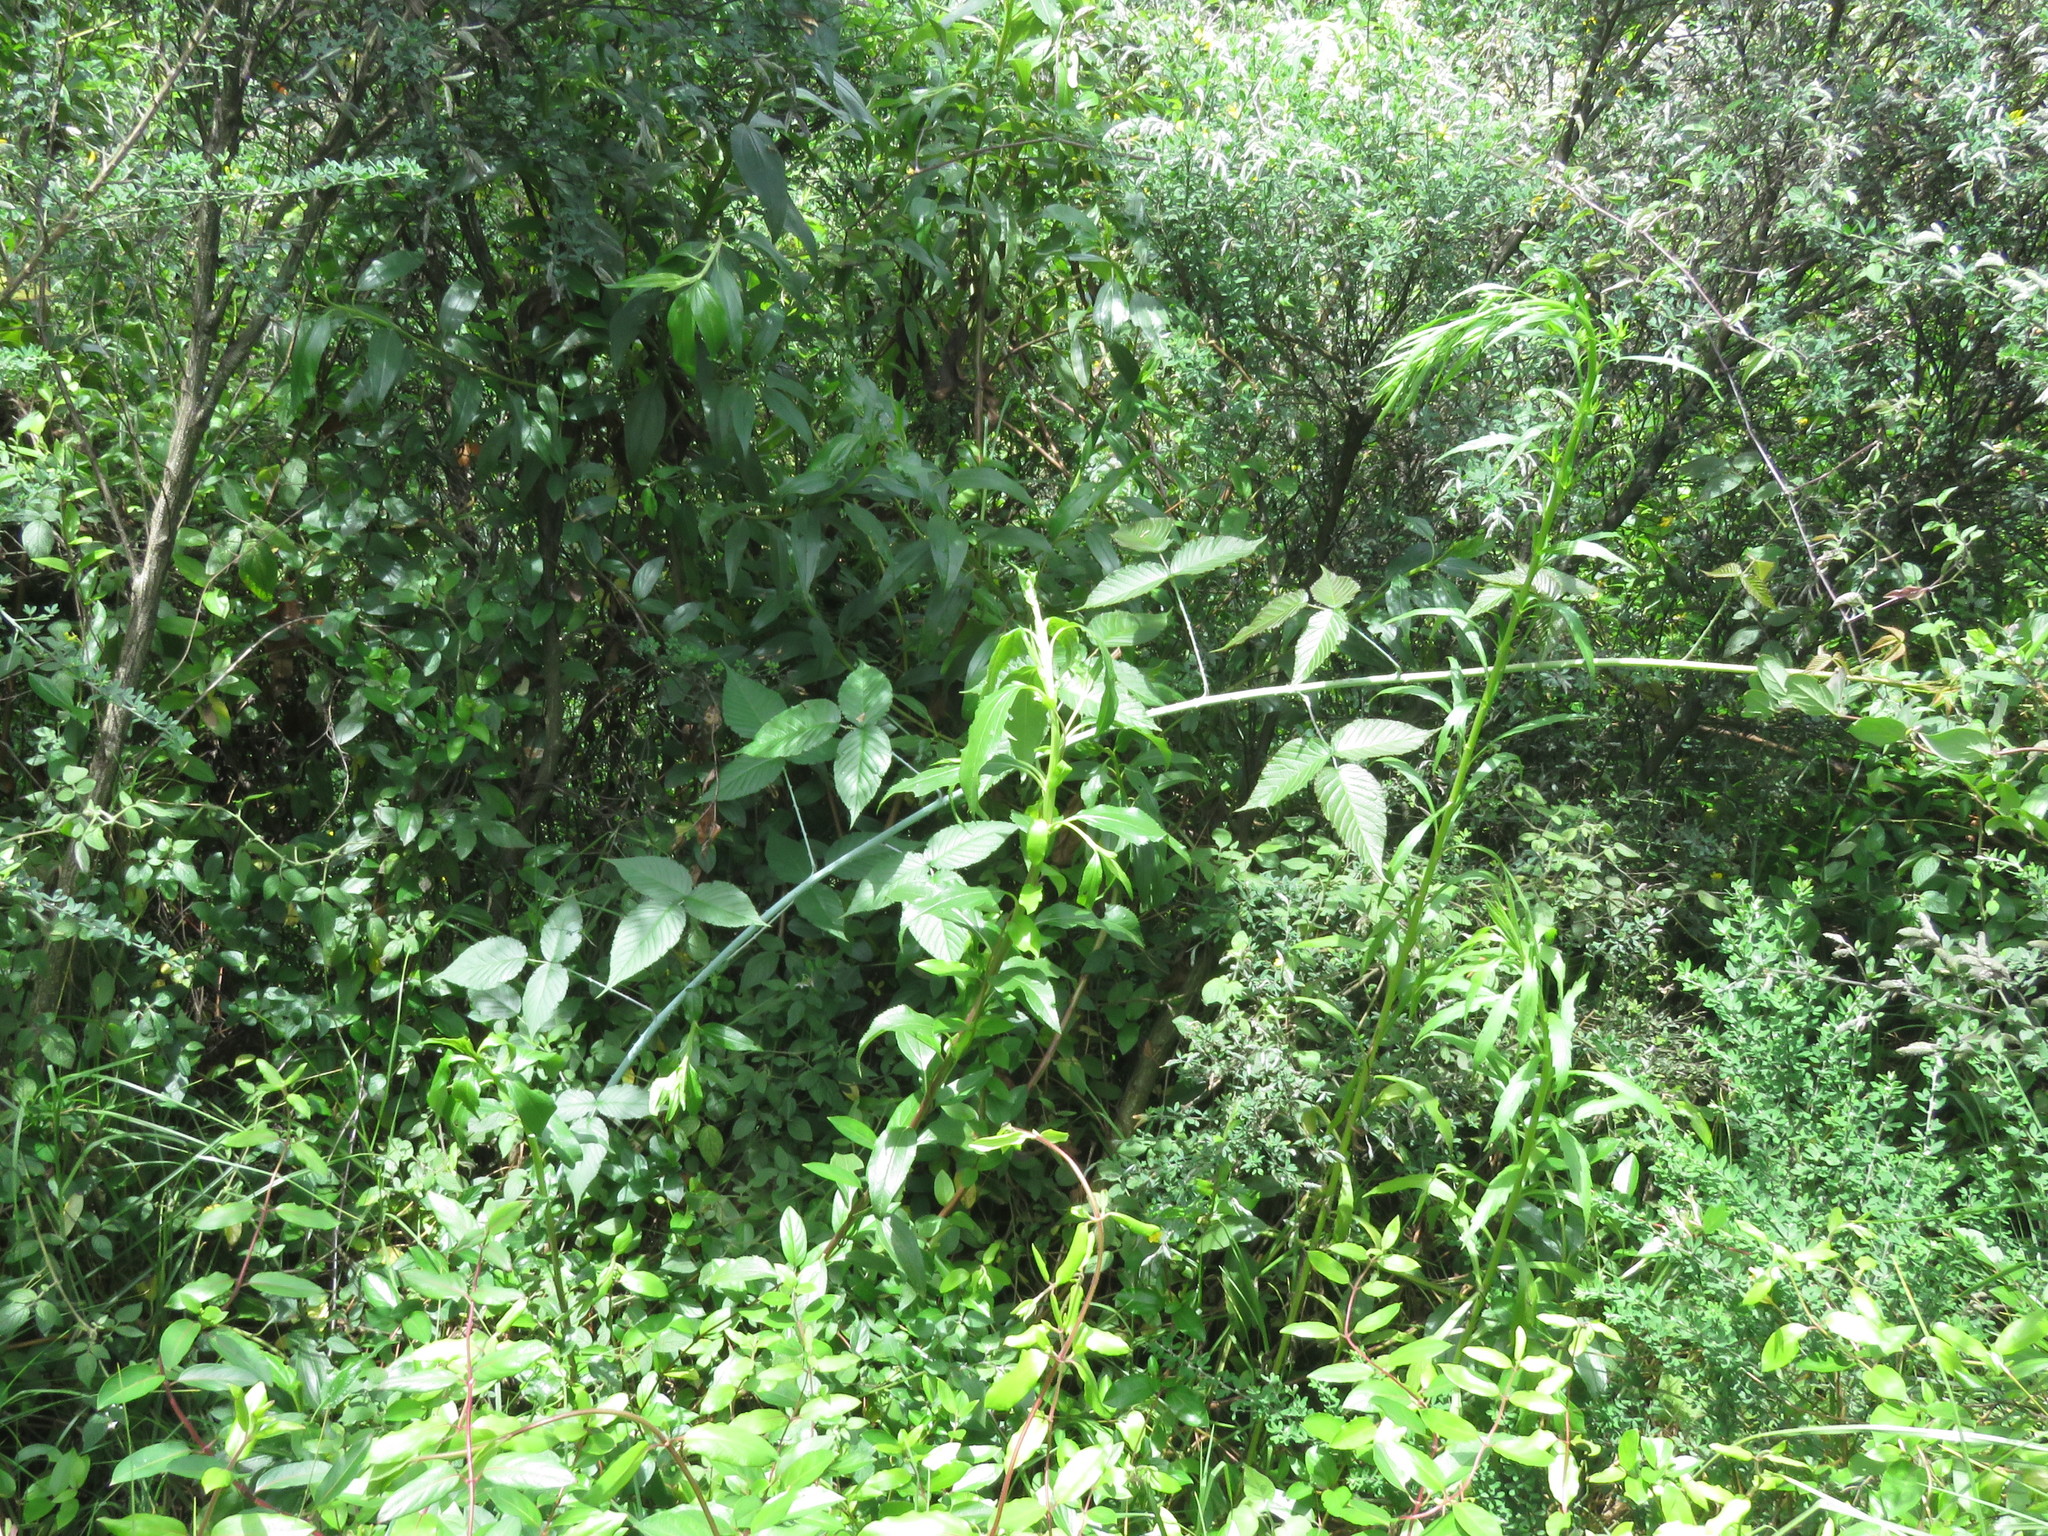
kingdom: Plantae
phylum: Tracheophyta
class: Magnoliopsida
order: Rosales
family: Rosaceae
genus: Rubus
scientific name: Rubus glaucus
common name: Andean blackberry
